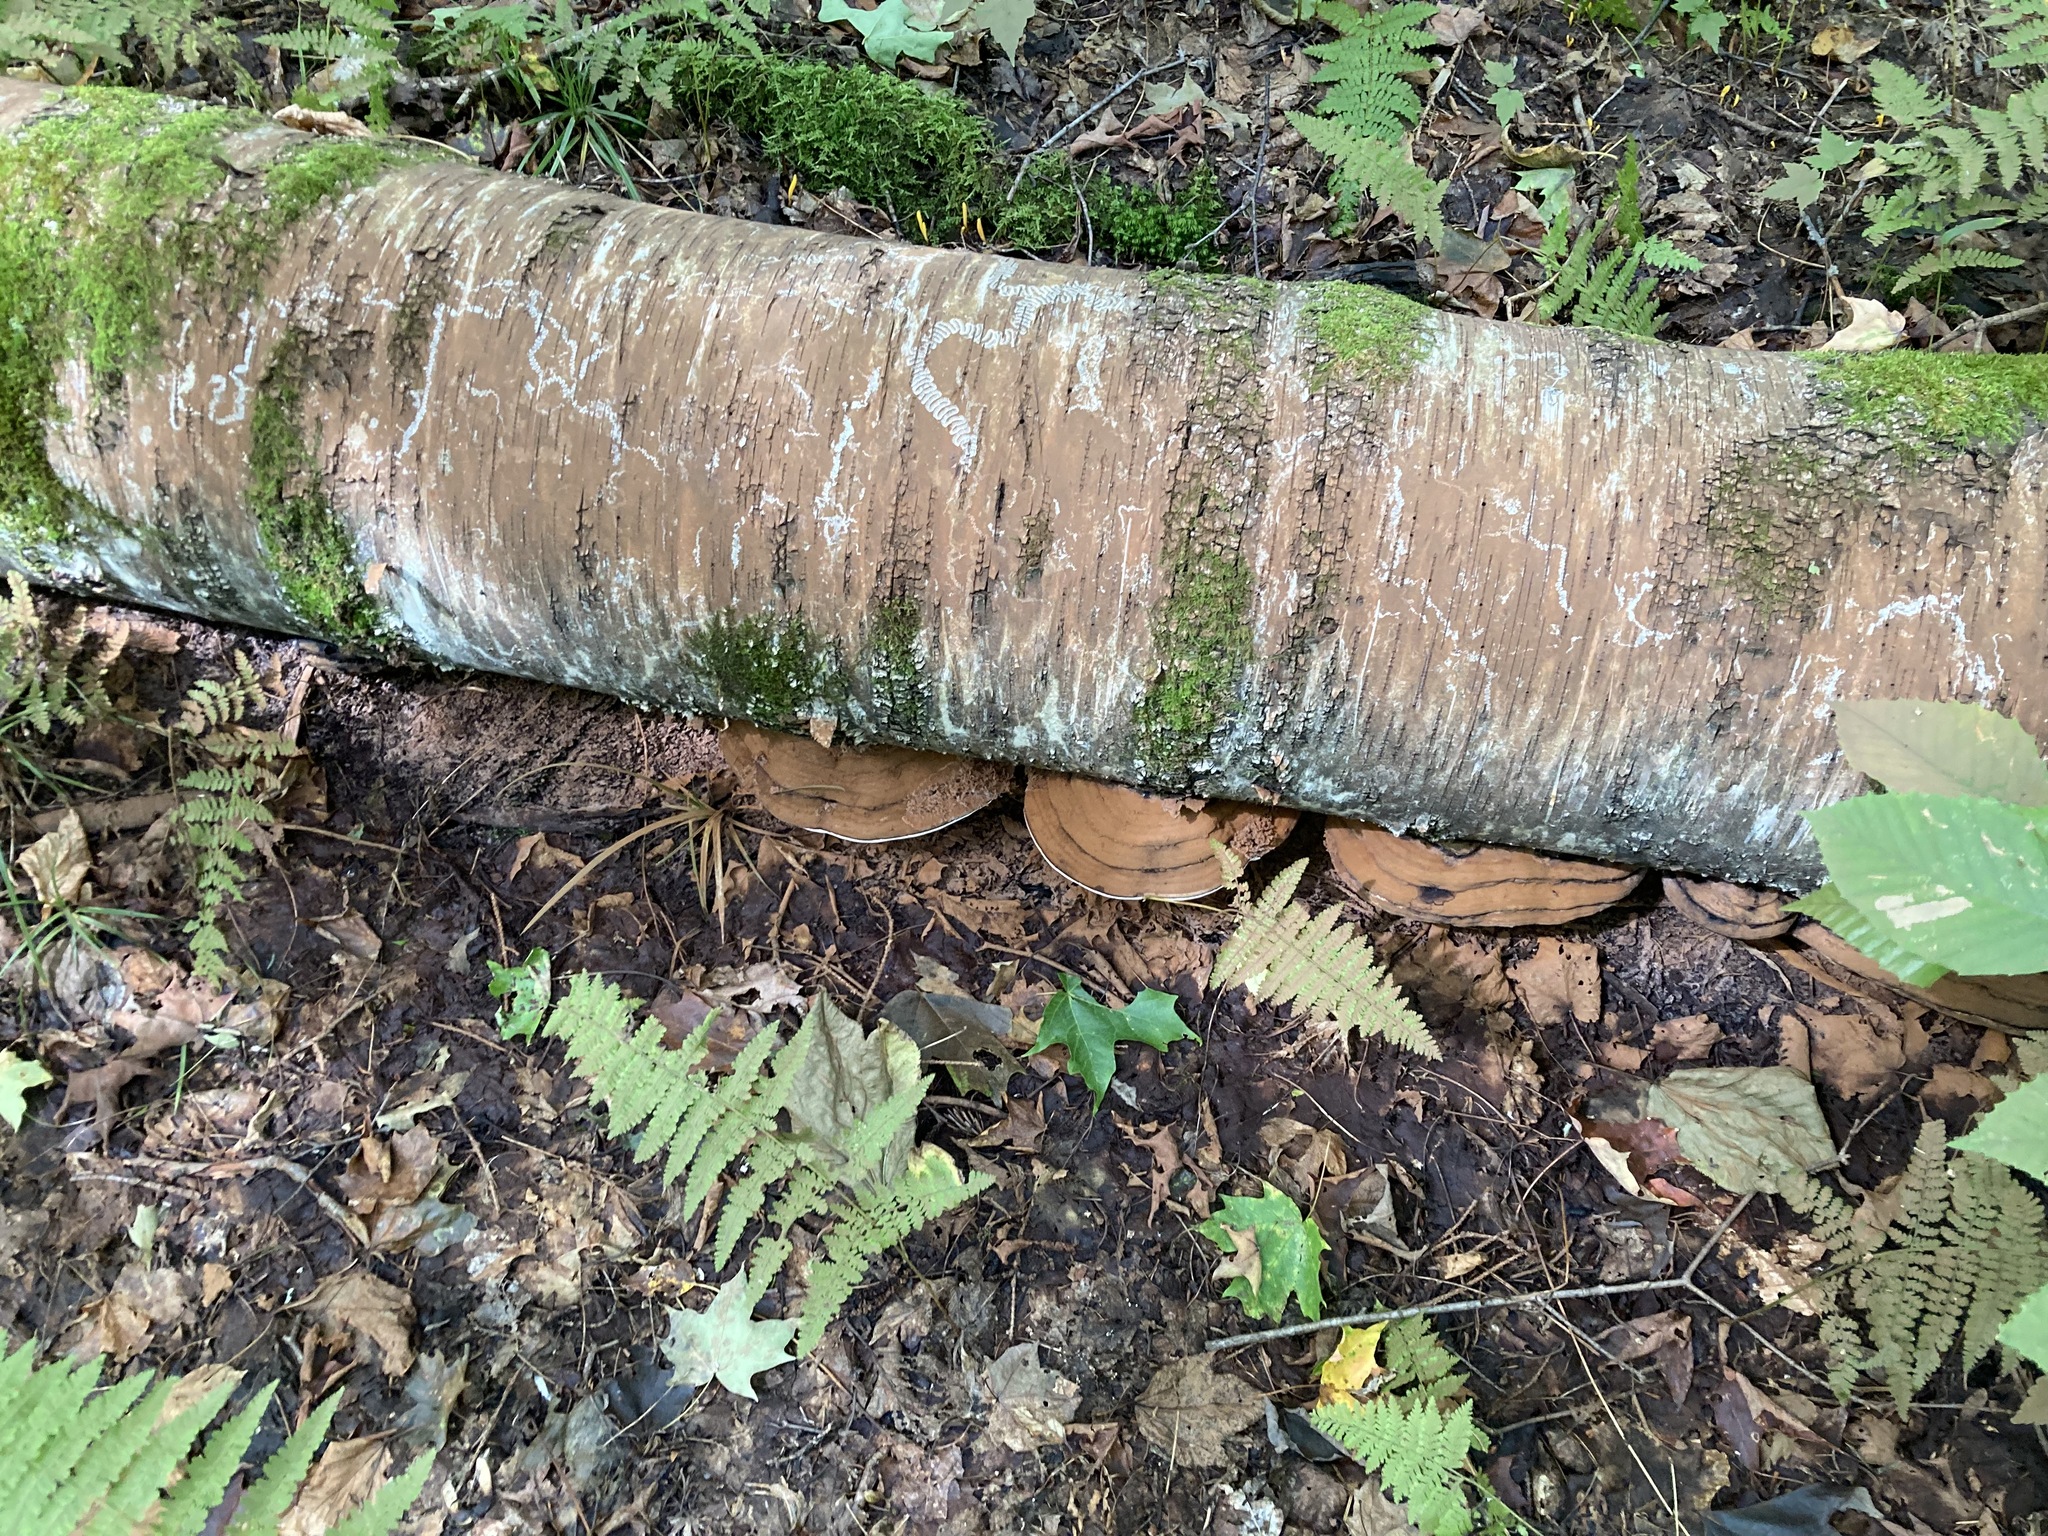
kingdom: Fungi
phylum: Basidiomycota
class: Agaricomycetes
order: Polyporales
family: Polyporaceae
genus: Ganoderma
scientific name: Ganoderma applanatum
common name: Artist's bracket
